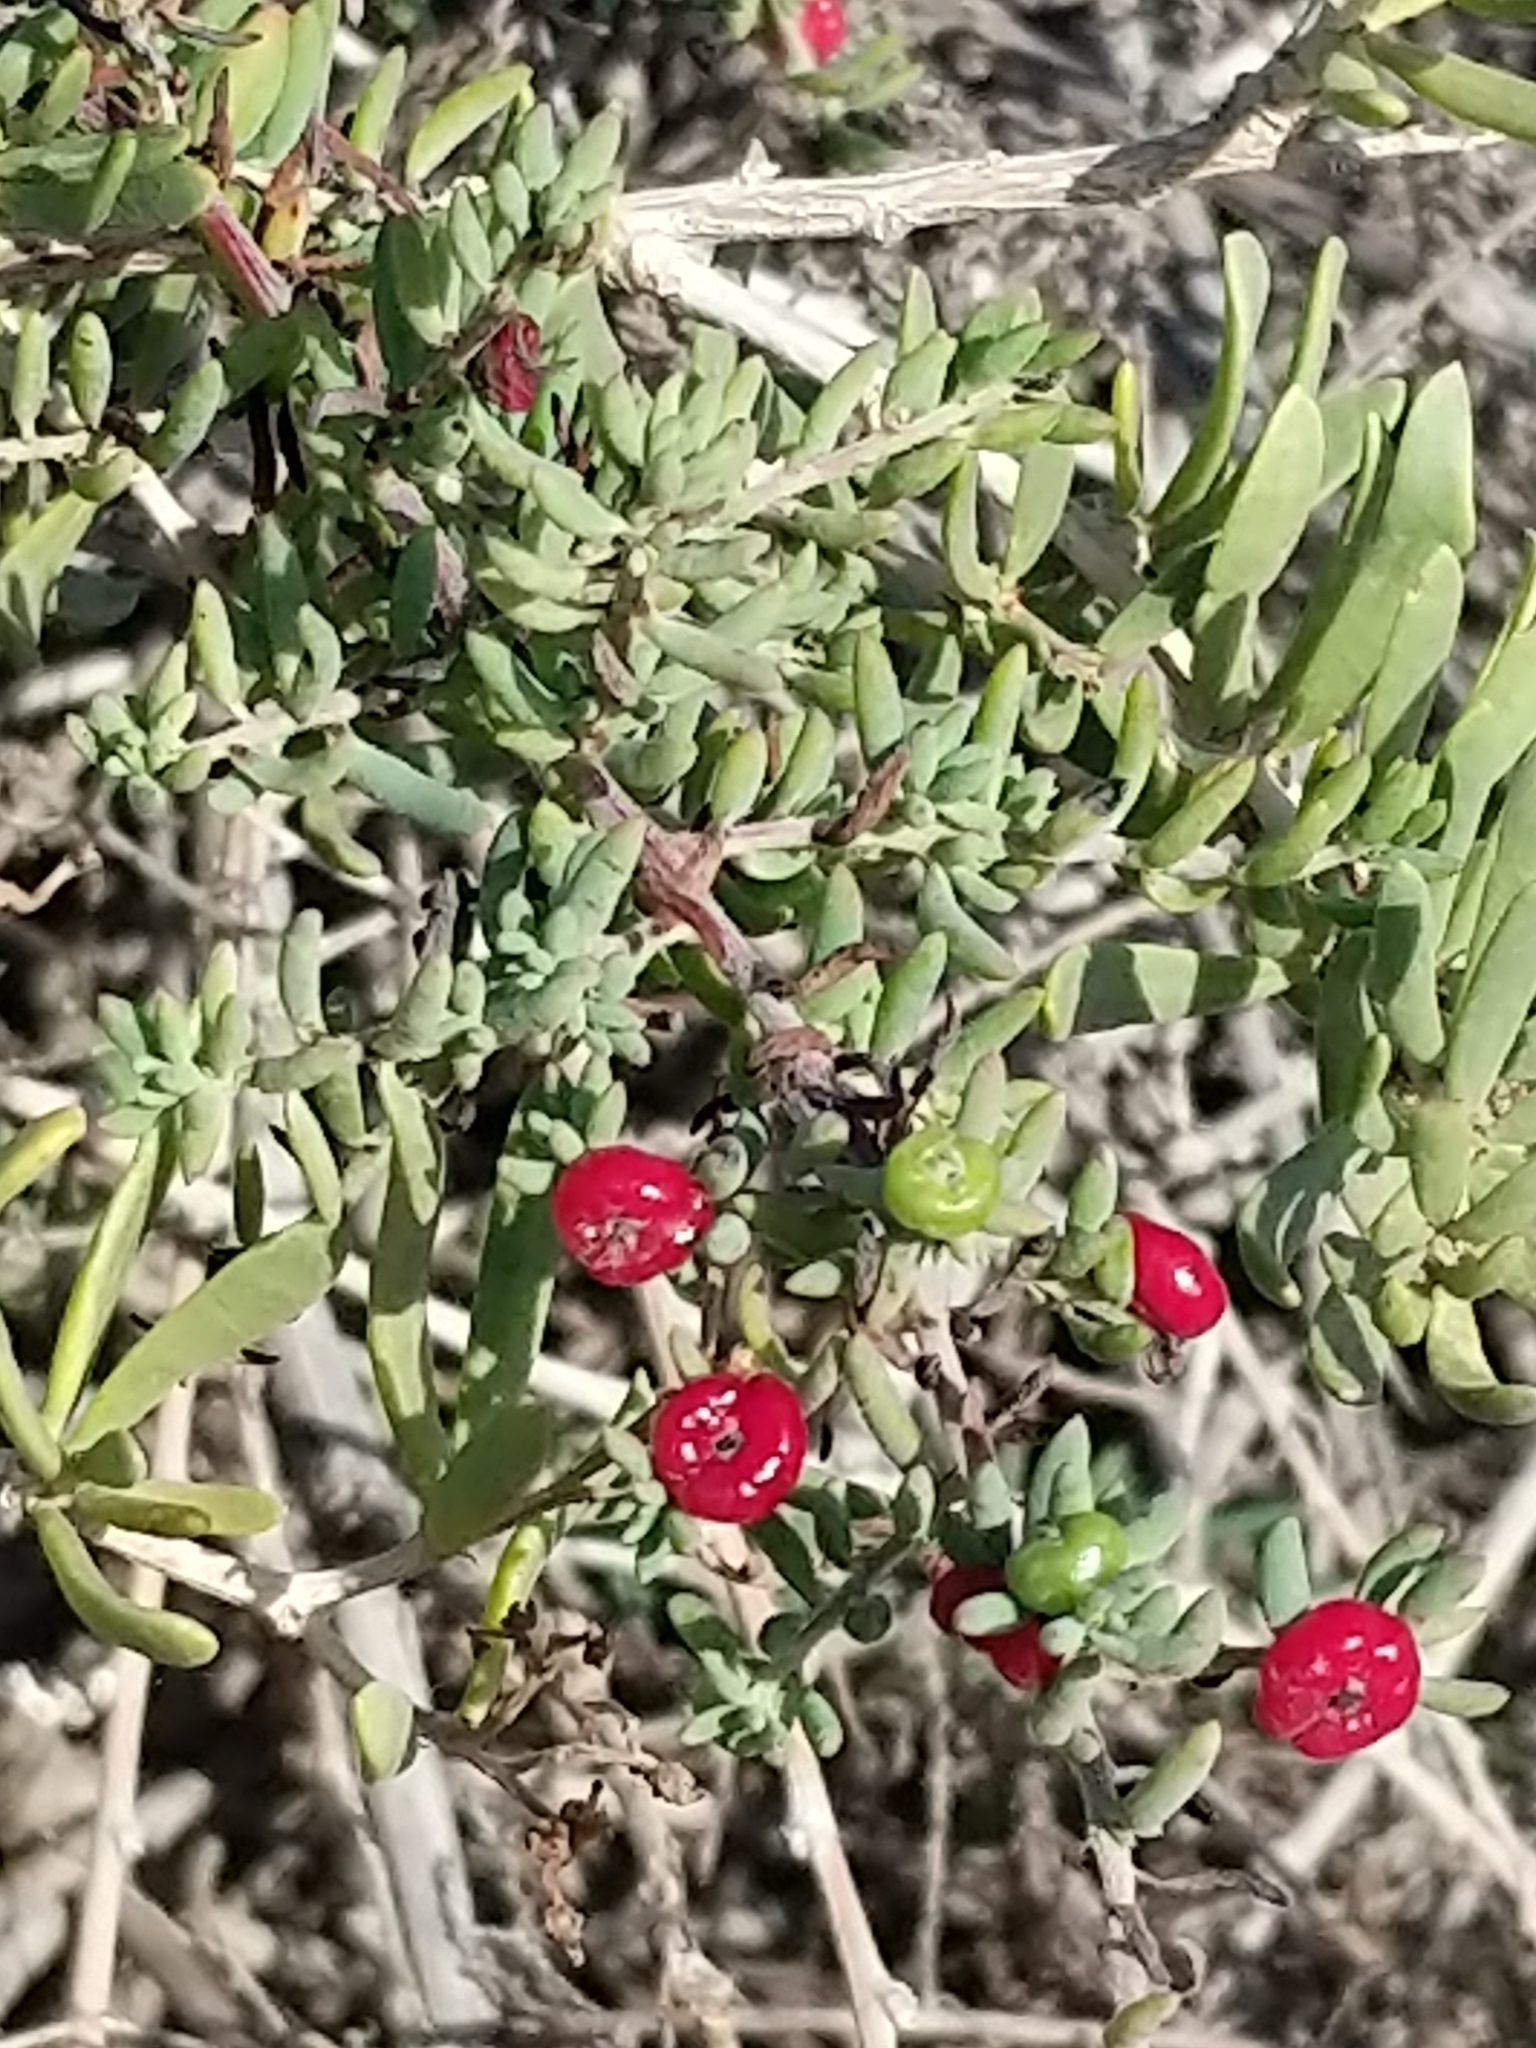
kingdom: Plantae
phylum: Tracheophyta
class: Magnoliopsida
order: Caryophyllales
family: Amaranthaceae
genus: Enchylaena
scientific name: Enchylaena tomentosa
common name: Ruby saltbush
